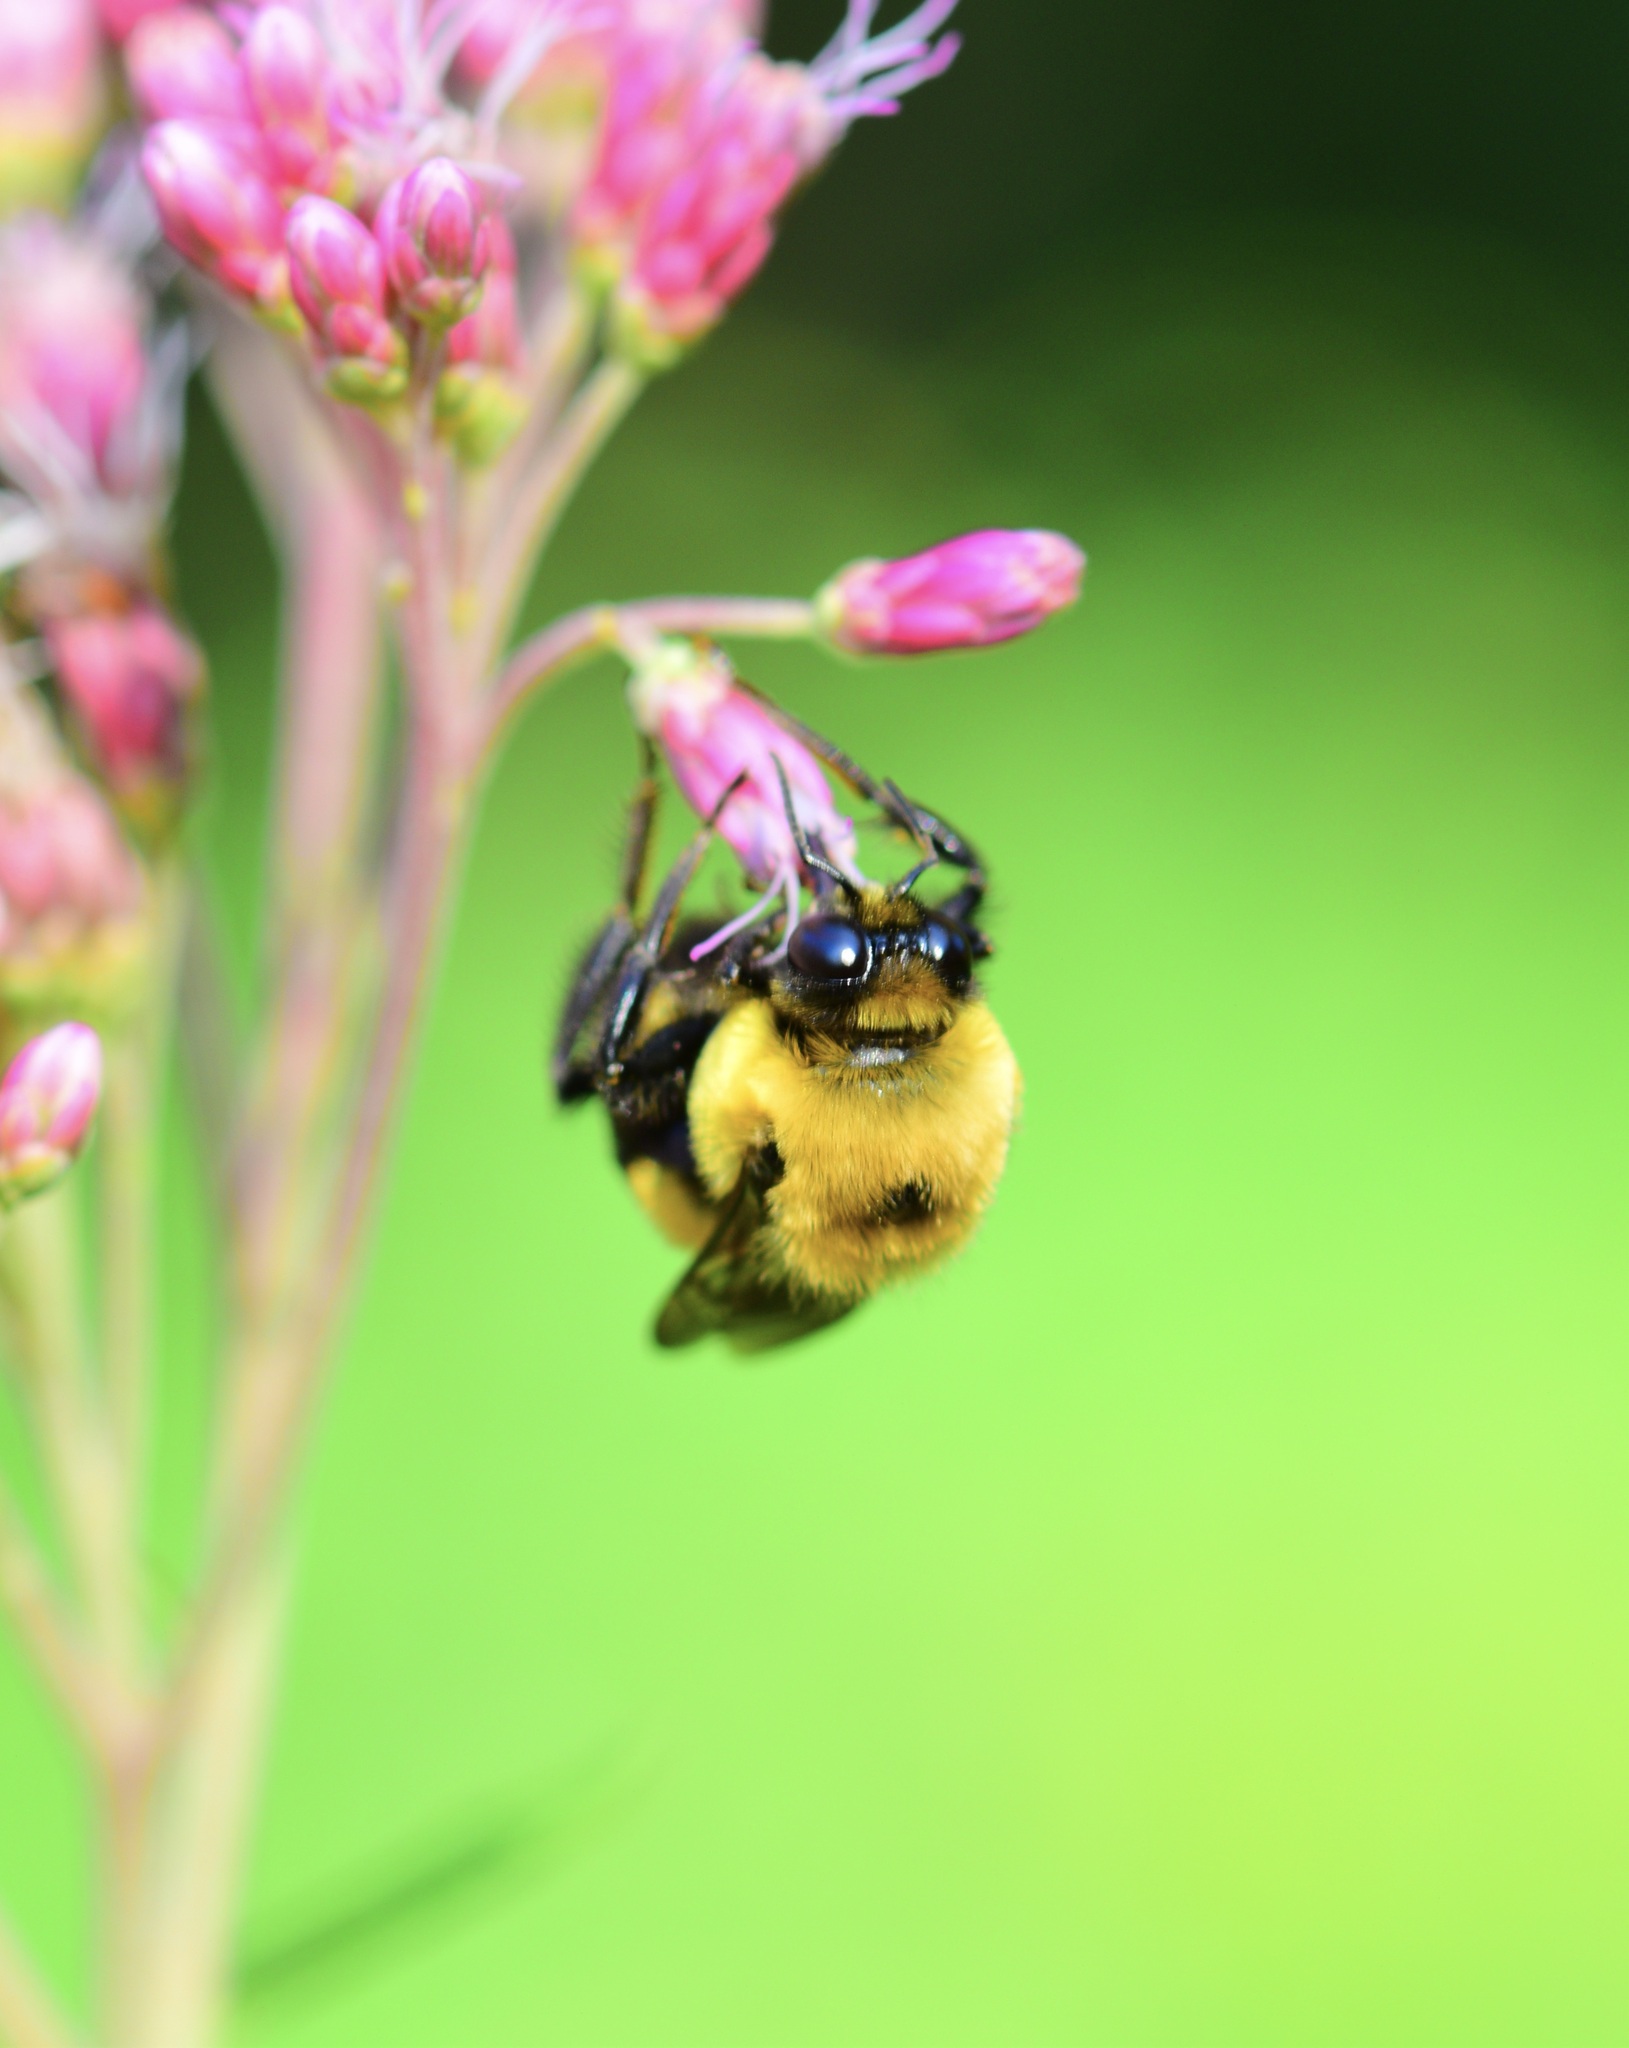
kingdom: Animalia
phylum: Arthropoda
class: Insecta
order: Hymenoptera
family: Apidae
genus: Bombus
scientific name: Bombus griseocollis
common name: Brown-belted bumble bee
